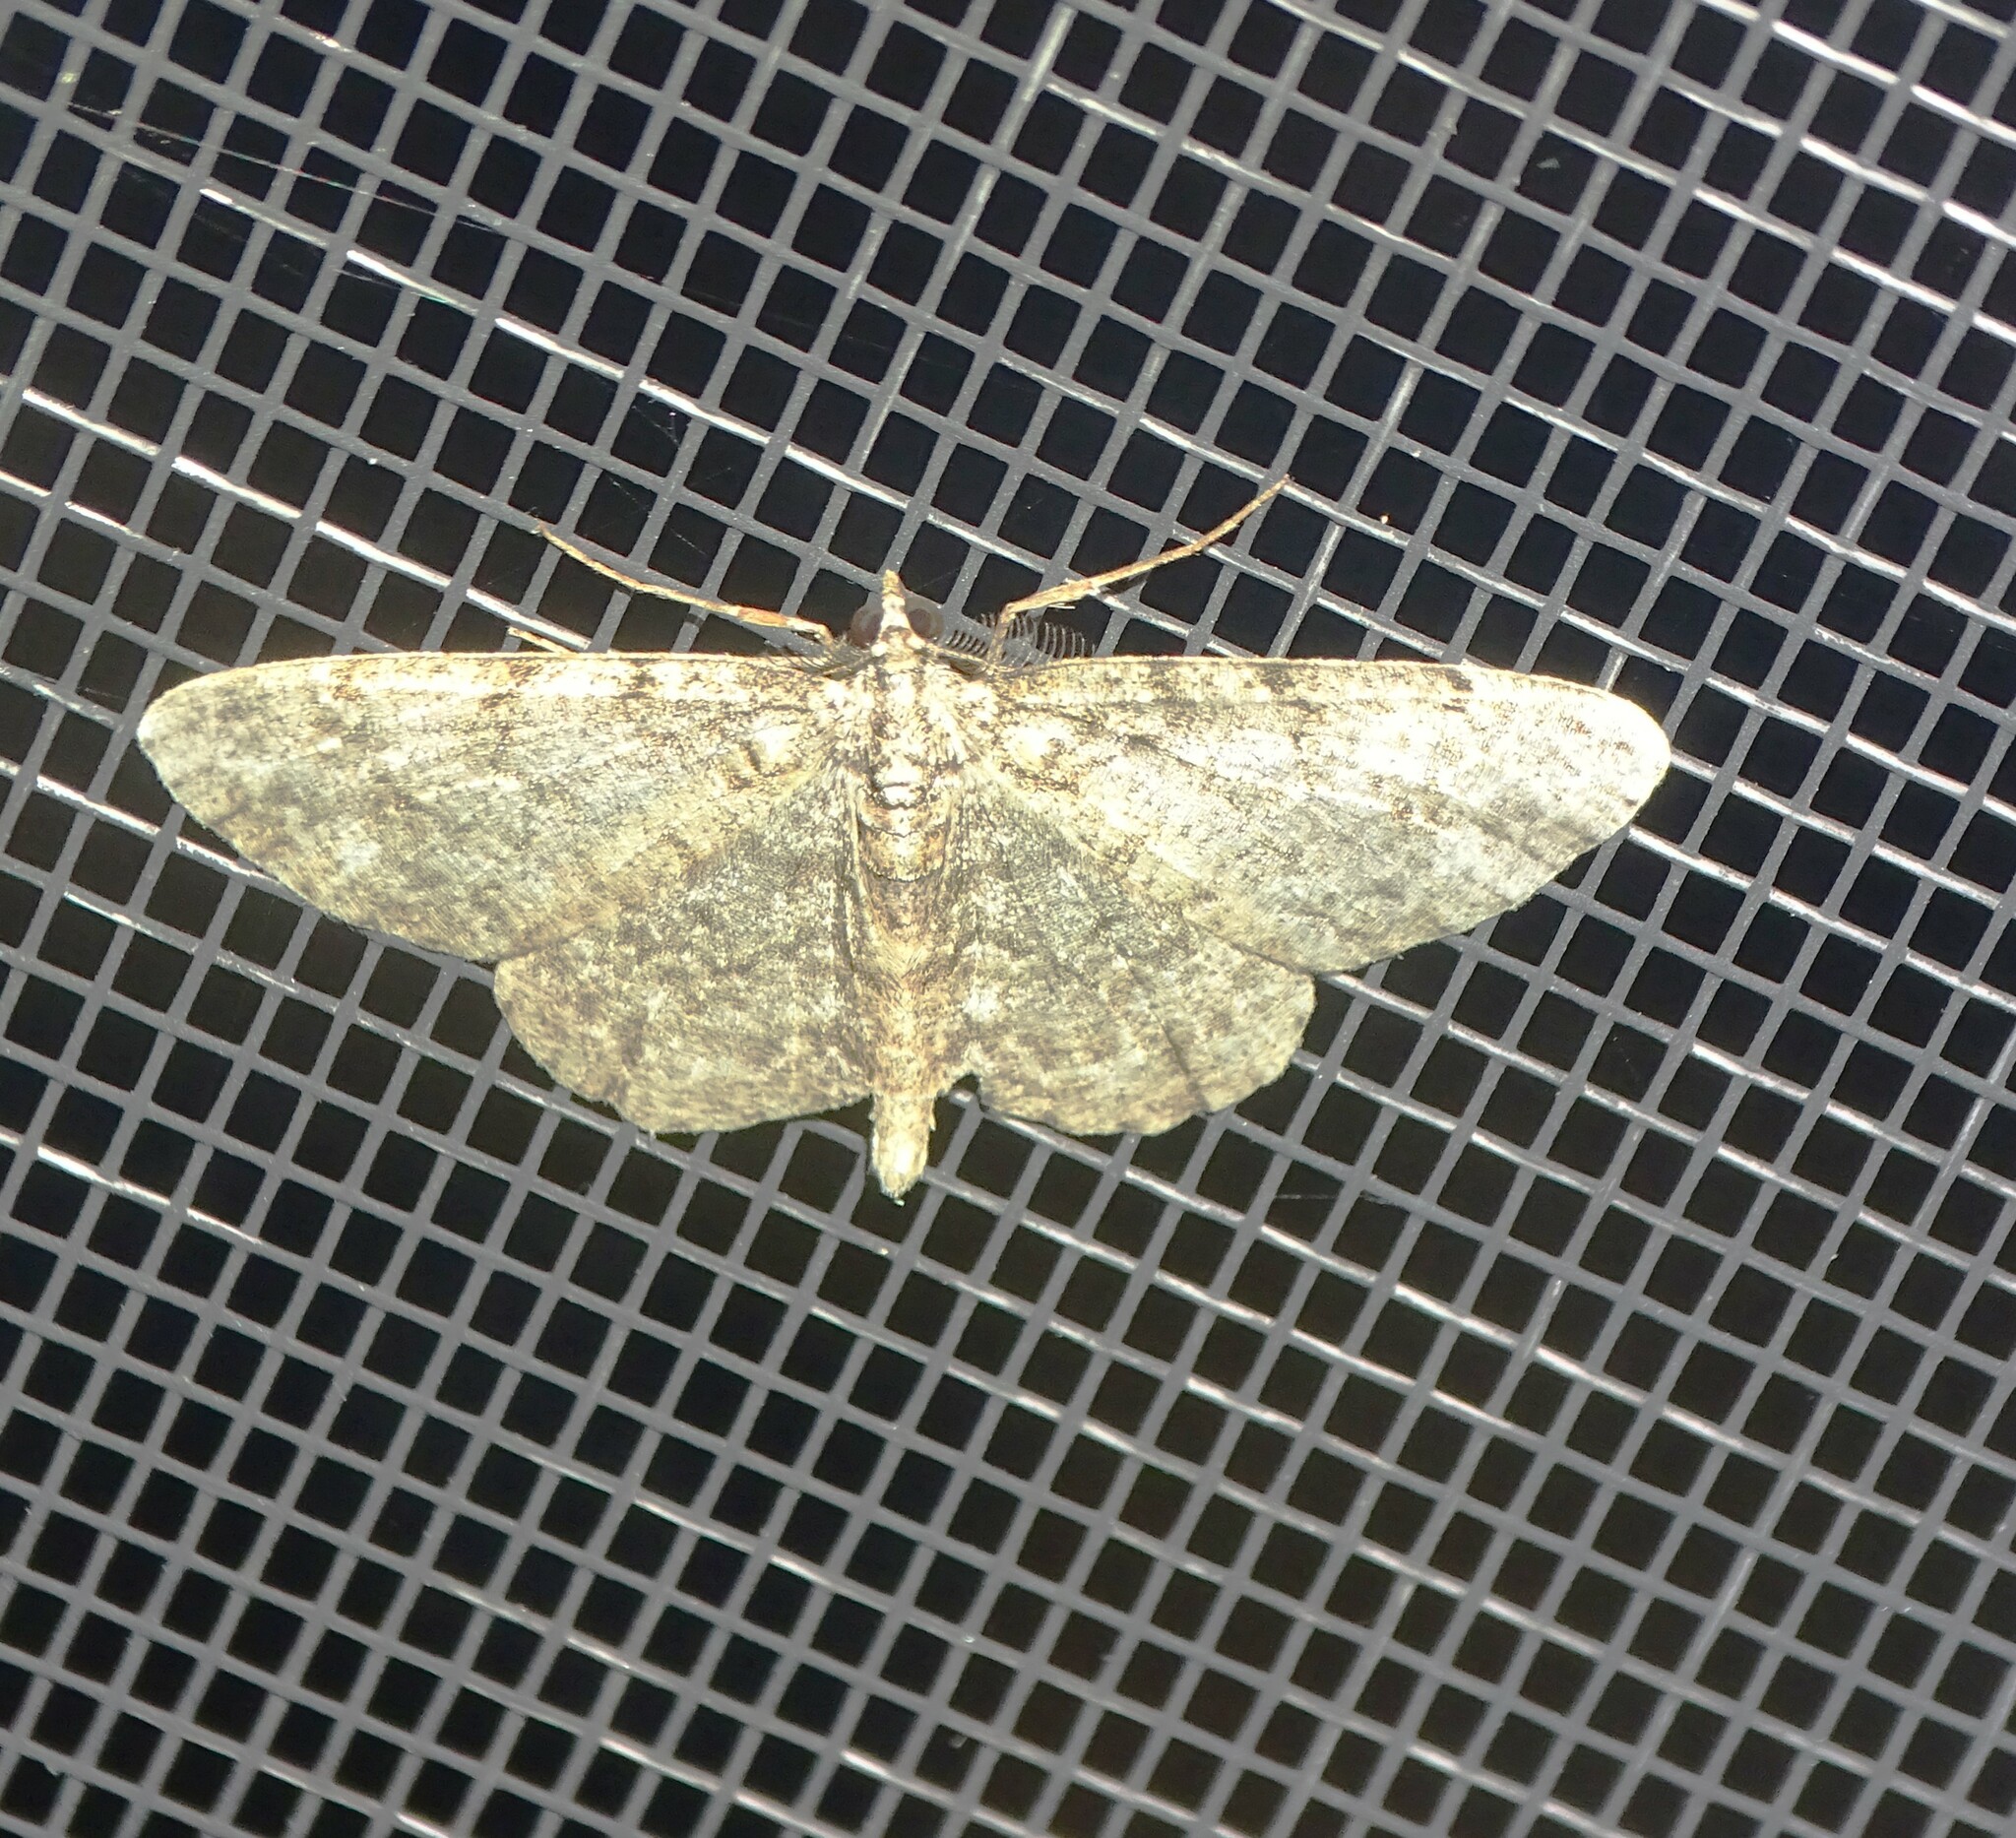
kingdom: Animalia
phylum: Arthropoda
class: Insecta
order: Lepidoptera
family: Geometridae
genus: Protoboarmia
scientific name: Protoboarmia porcelaria
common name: Porcelain gray
